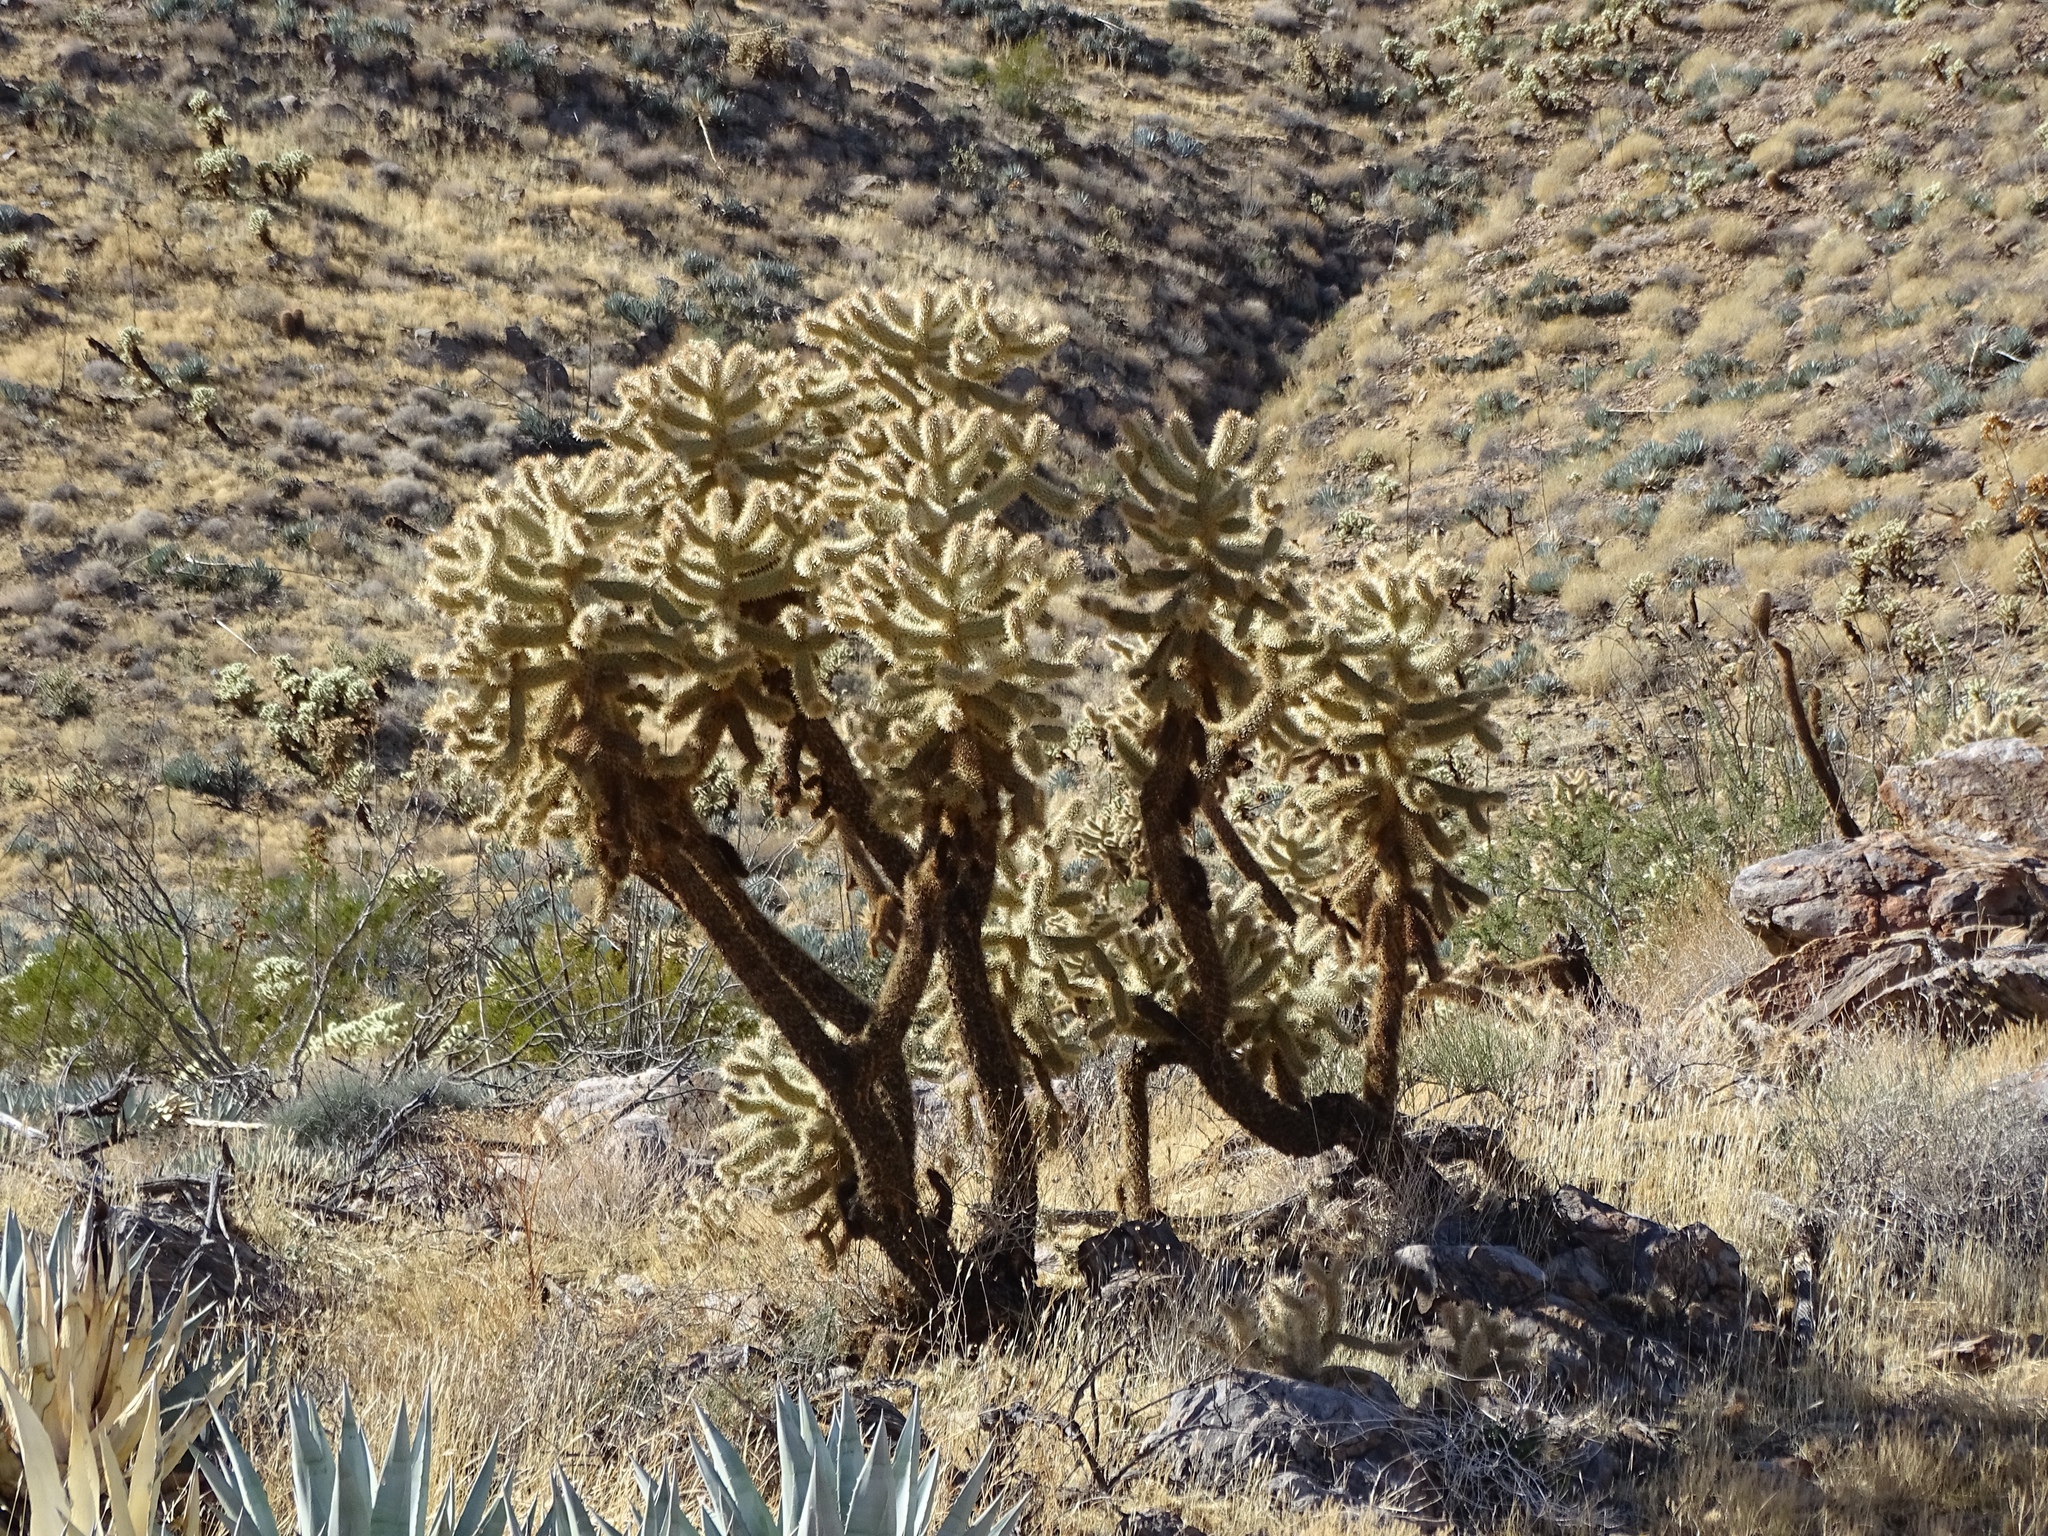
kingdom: Plantae
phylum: Tracheophyta
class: Magnoliopsida
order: Caryophyllales
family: Cactaceae
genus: Cylindropuntia
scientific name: Cylindropuntia fosbergii
